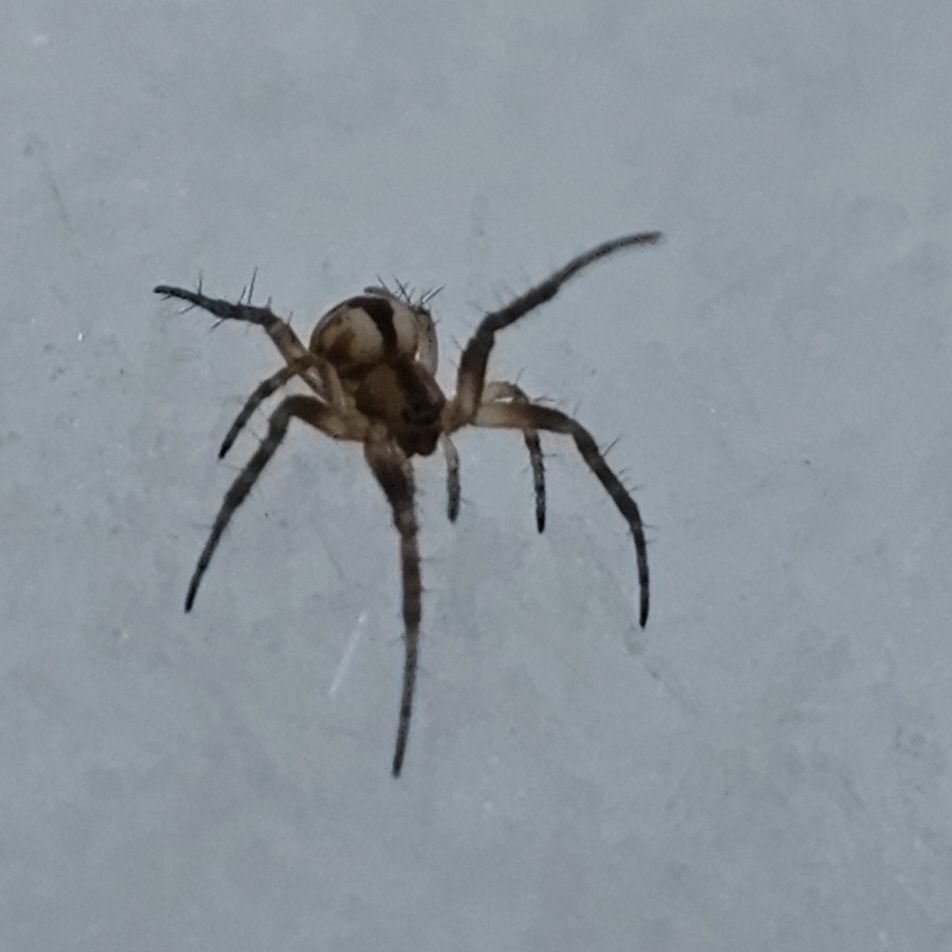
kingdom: Animalia
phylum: Arthropoda
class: Arachnida
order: Araneae
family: Araneidae
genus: Mangora
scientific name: Mangora placida
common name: Tuft-legged orbweaver
